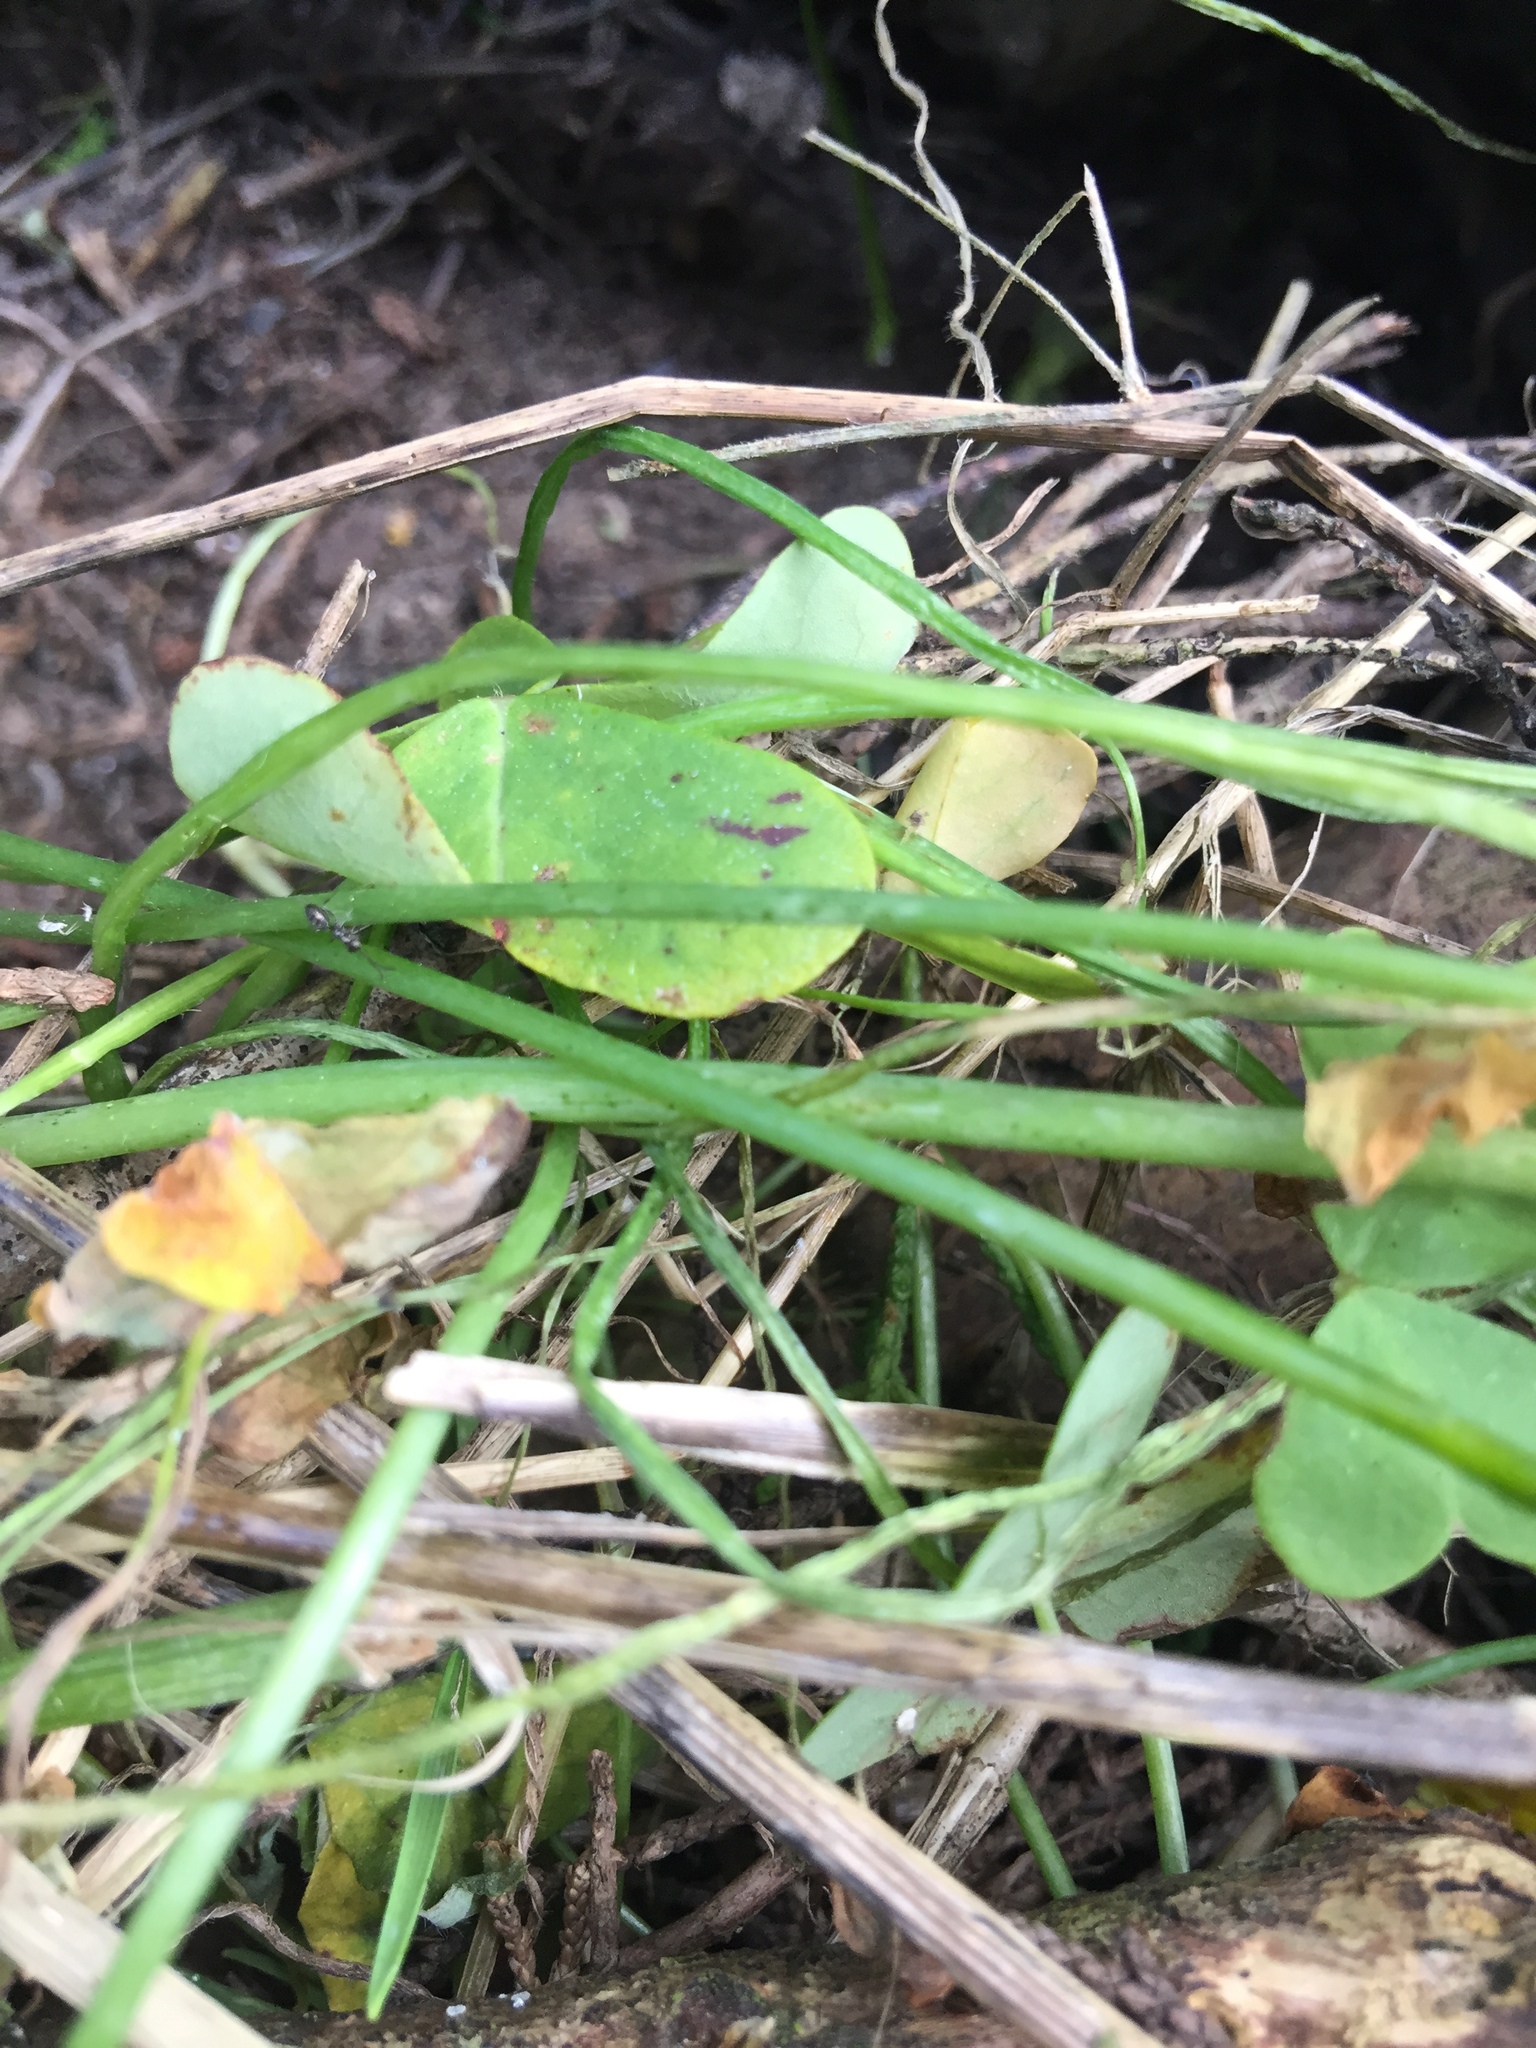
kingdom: Plantae
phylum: Tracheophyta
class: Magnoliopsida
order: Oxalidales
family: Oxalidaceae
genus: Oxalis
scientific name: Oxalis pes-caprae
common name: Bermuda-buttercup
